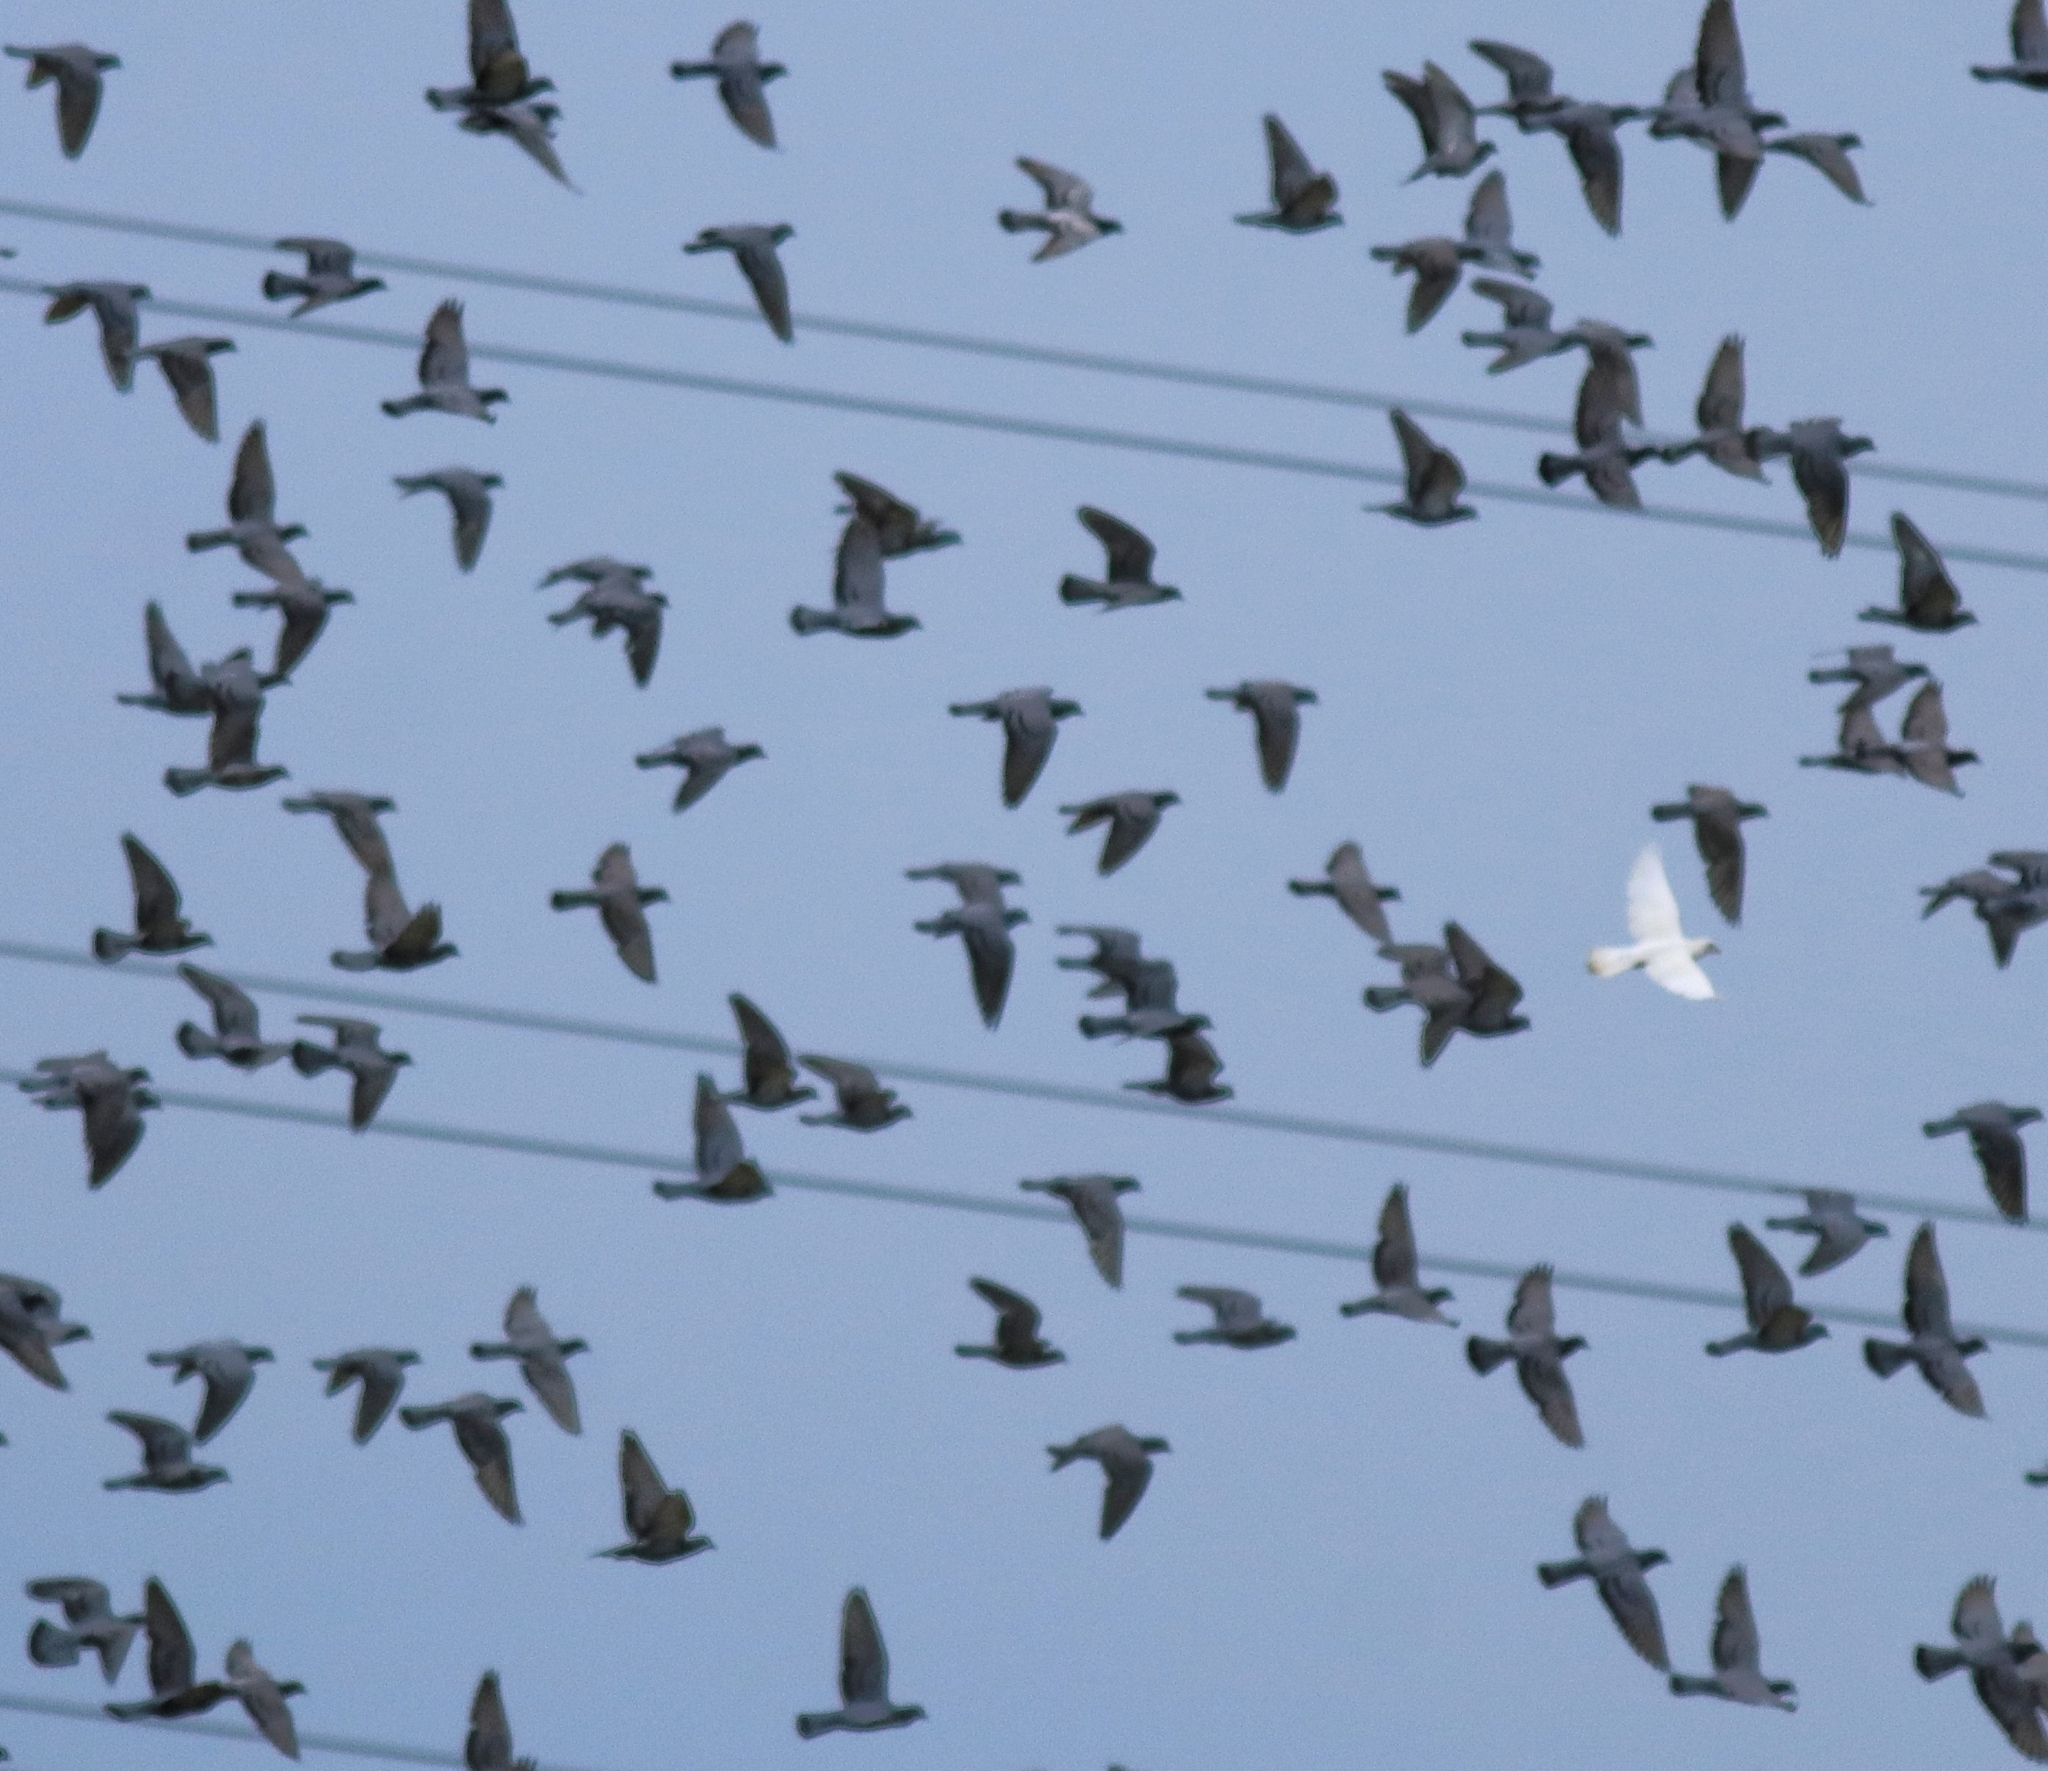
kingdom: Animalia
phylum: Chordata
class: Aves
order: Columbiformes
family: Columbidae
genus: Columba
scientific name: Columba livia
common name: Rock pigeon
